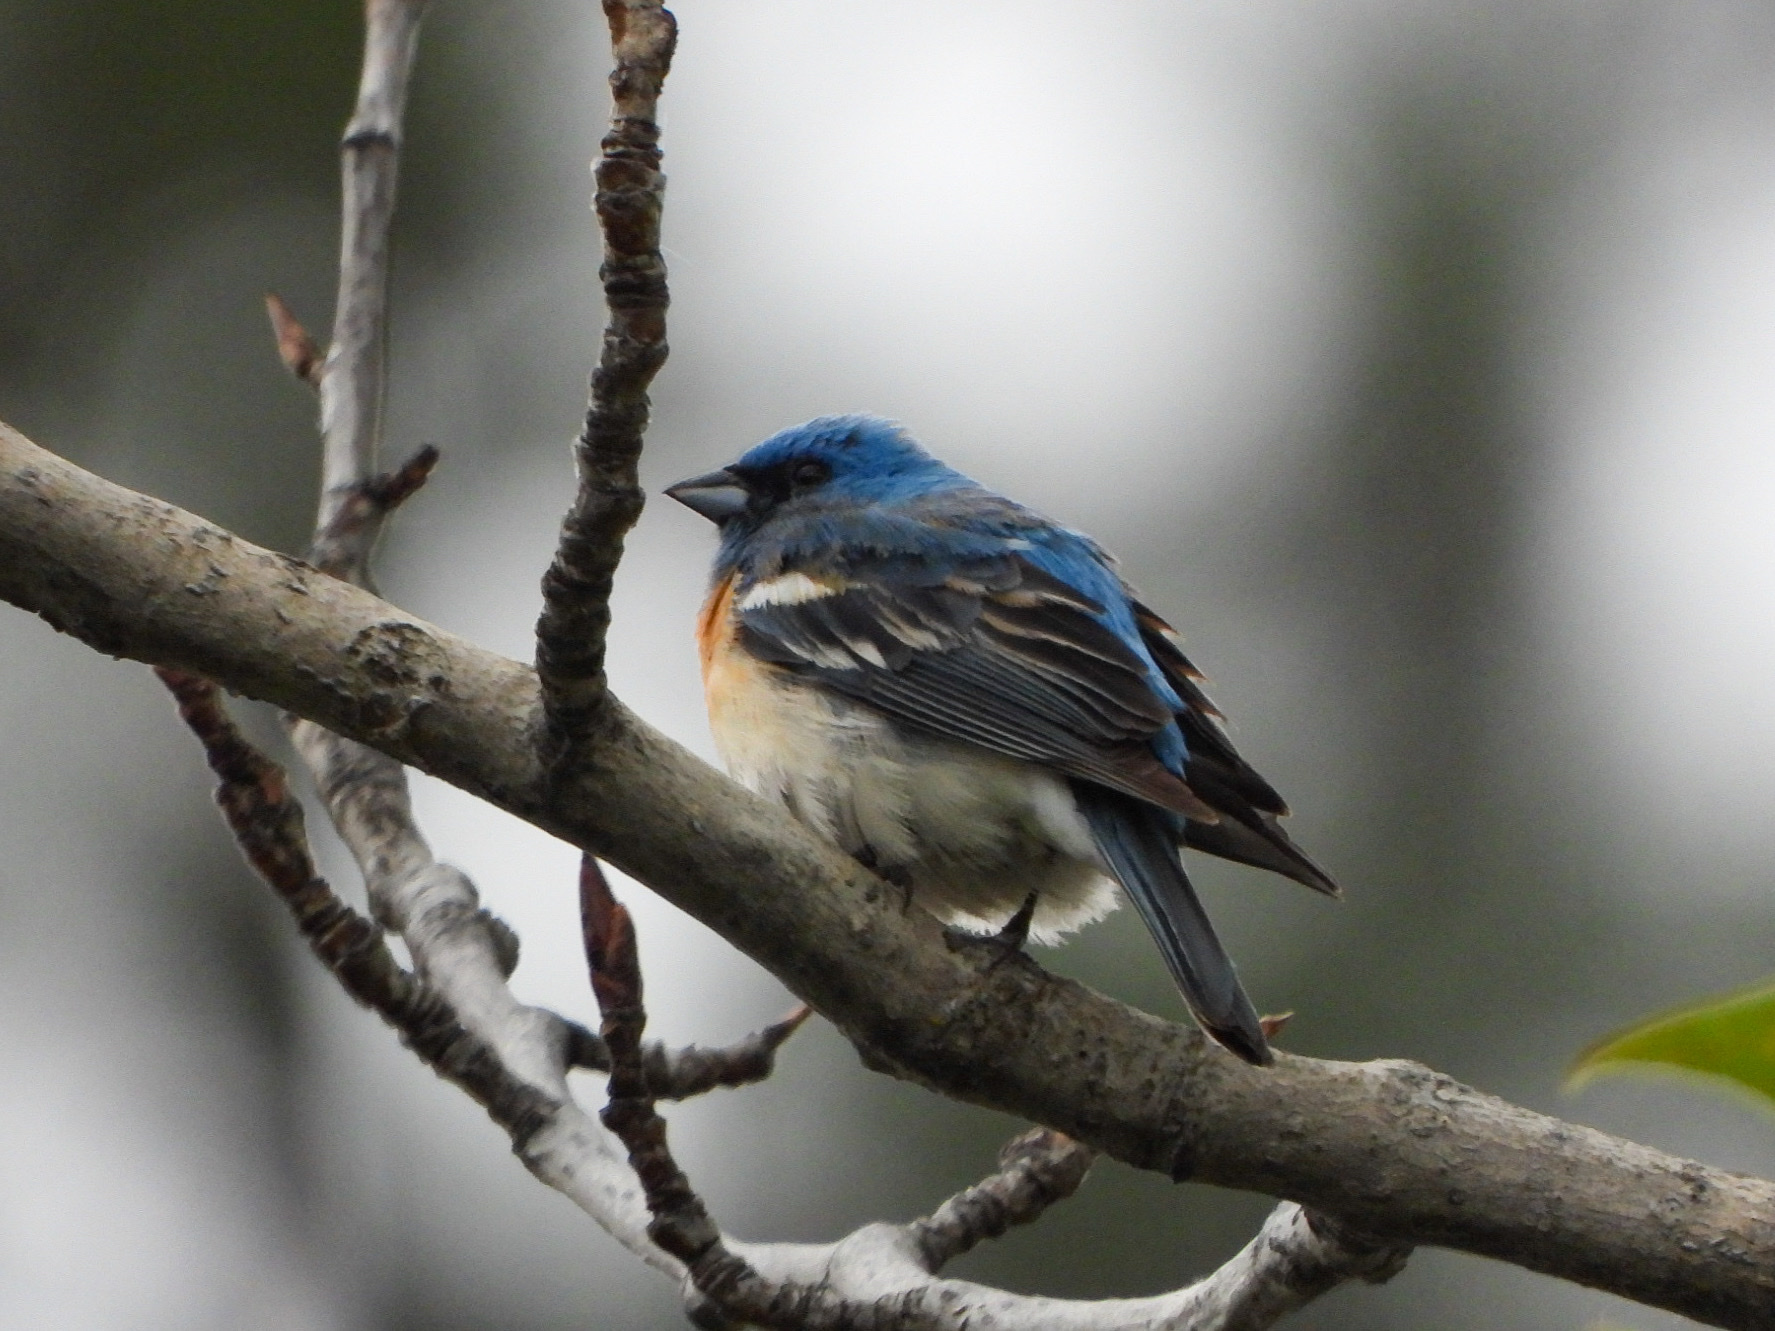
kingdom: Animalia
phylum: Chordata
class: Aves
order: Passeriformes
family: Cardinalidae
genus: Passerina
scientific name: Passerina amoena
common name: Lazuli bunting
